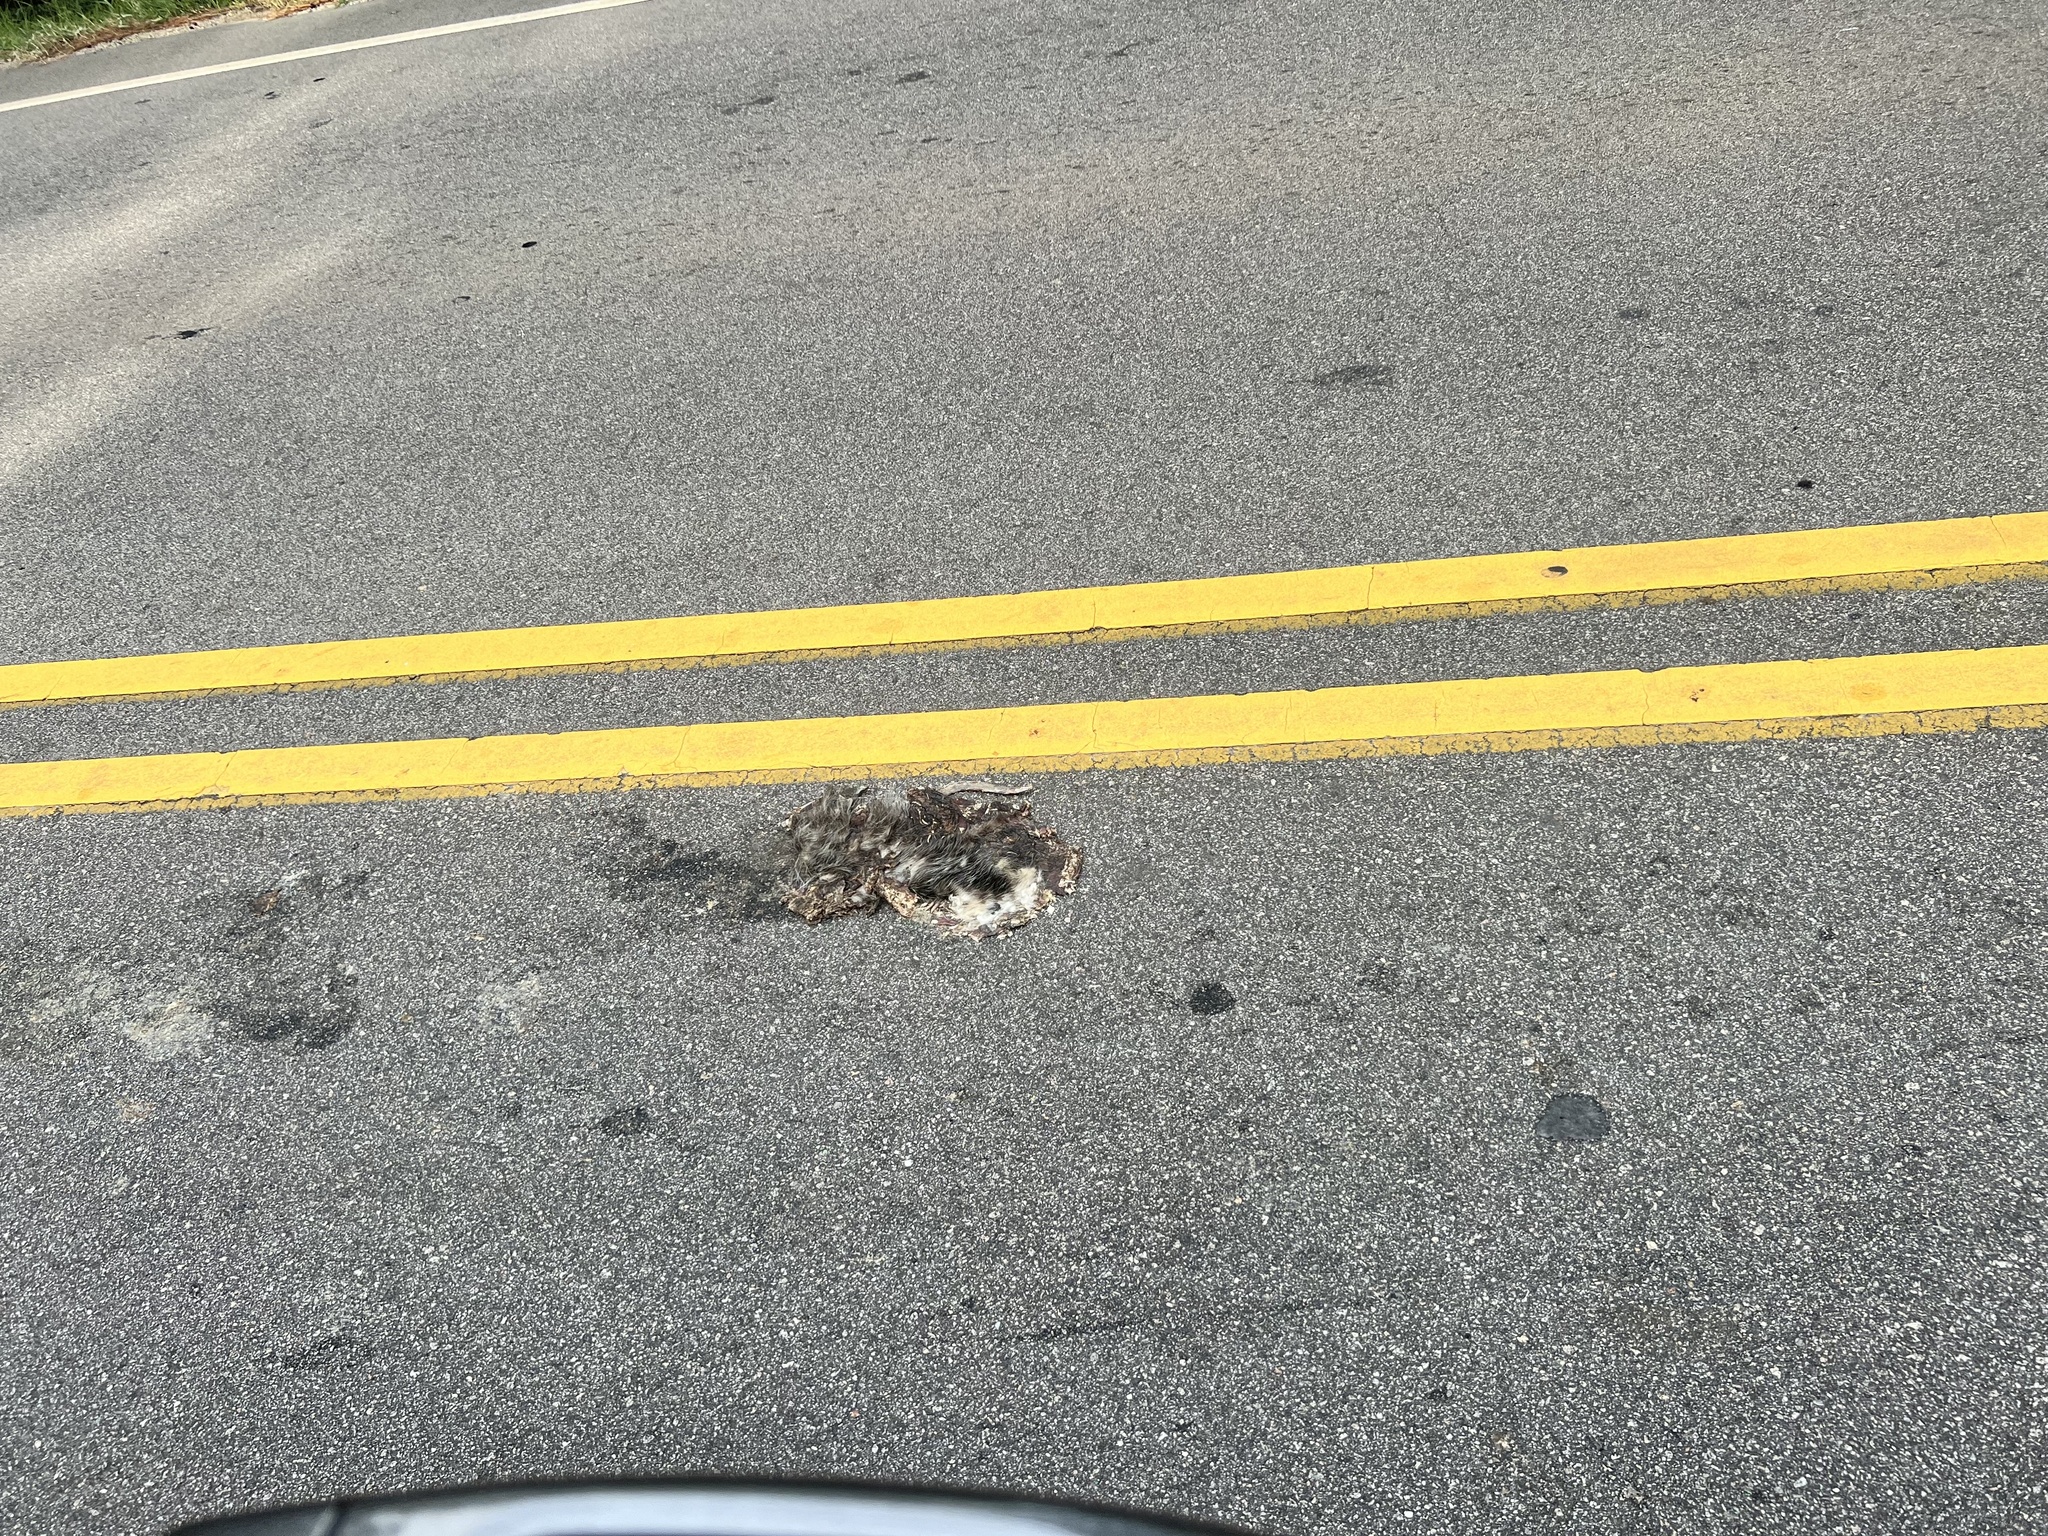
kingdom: Animalia
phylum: Chordata
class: Mammalia
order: Didelphimorphia
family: Didelphidae
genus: Didelphis
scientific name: Didelphis virginiana
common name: Virginia opossum
